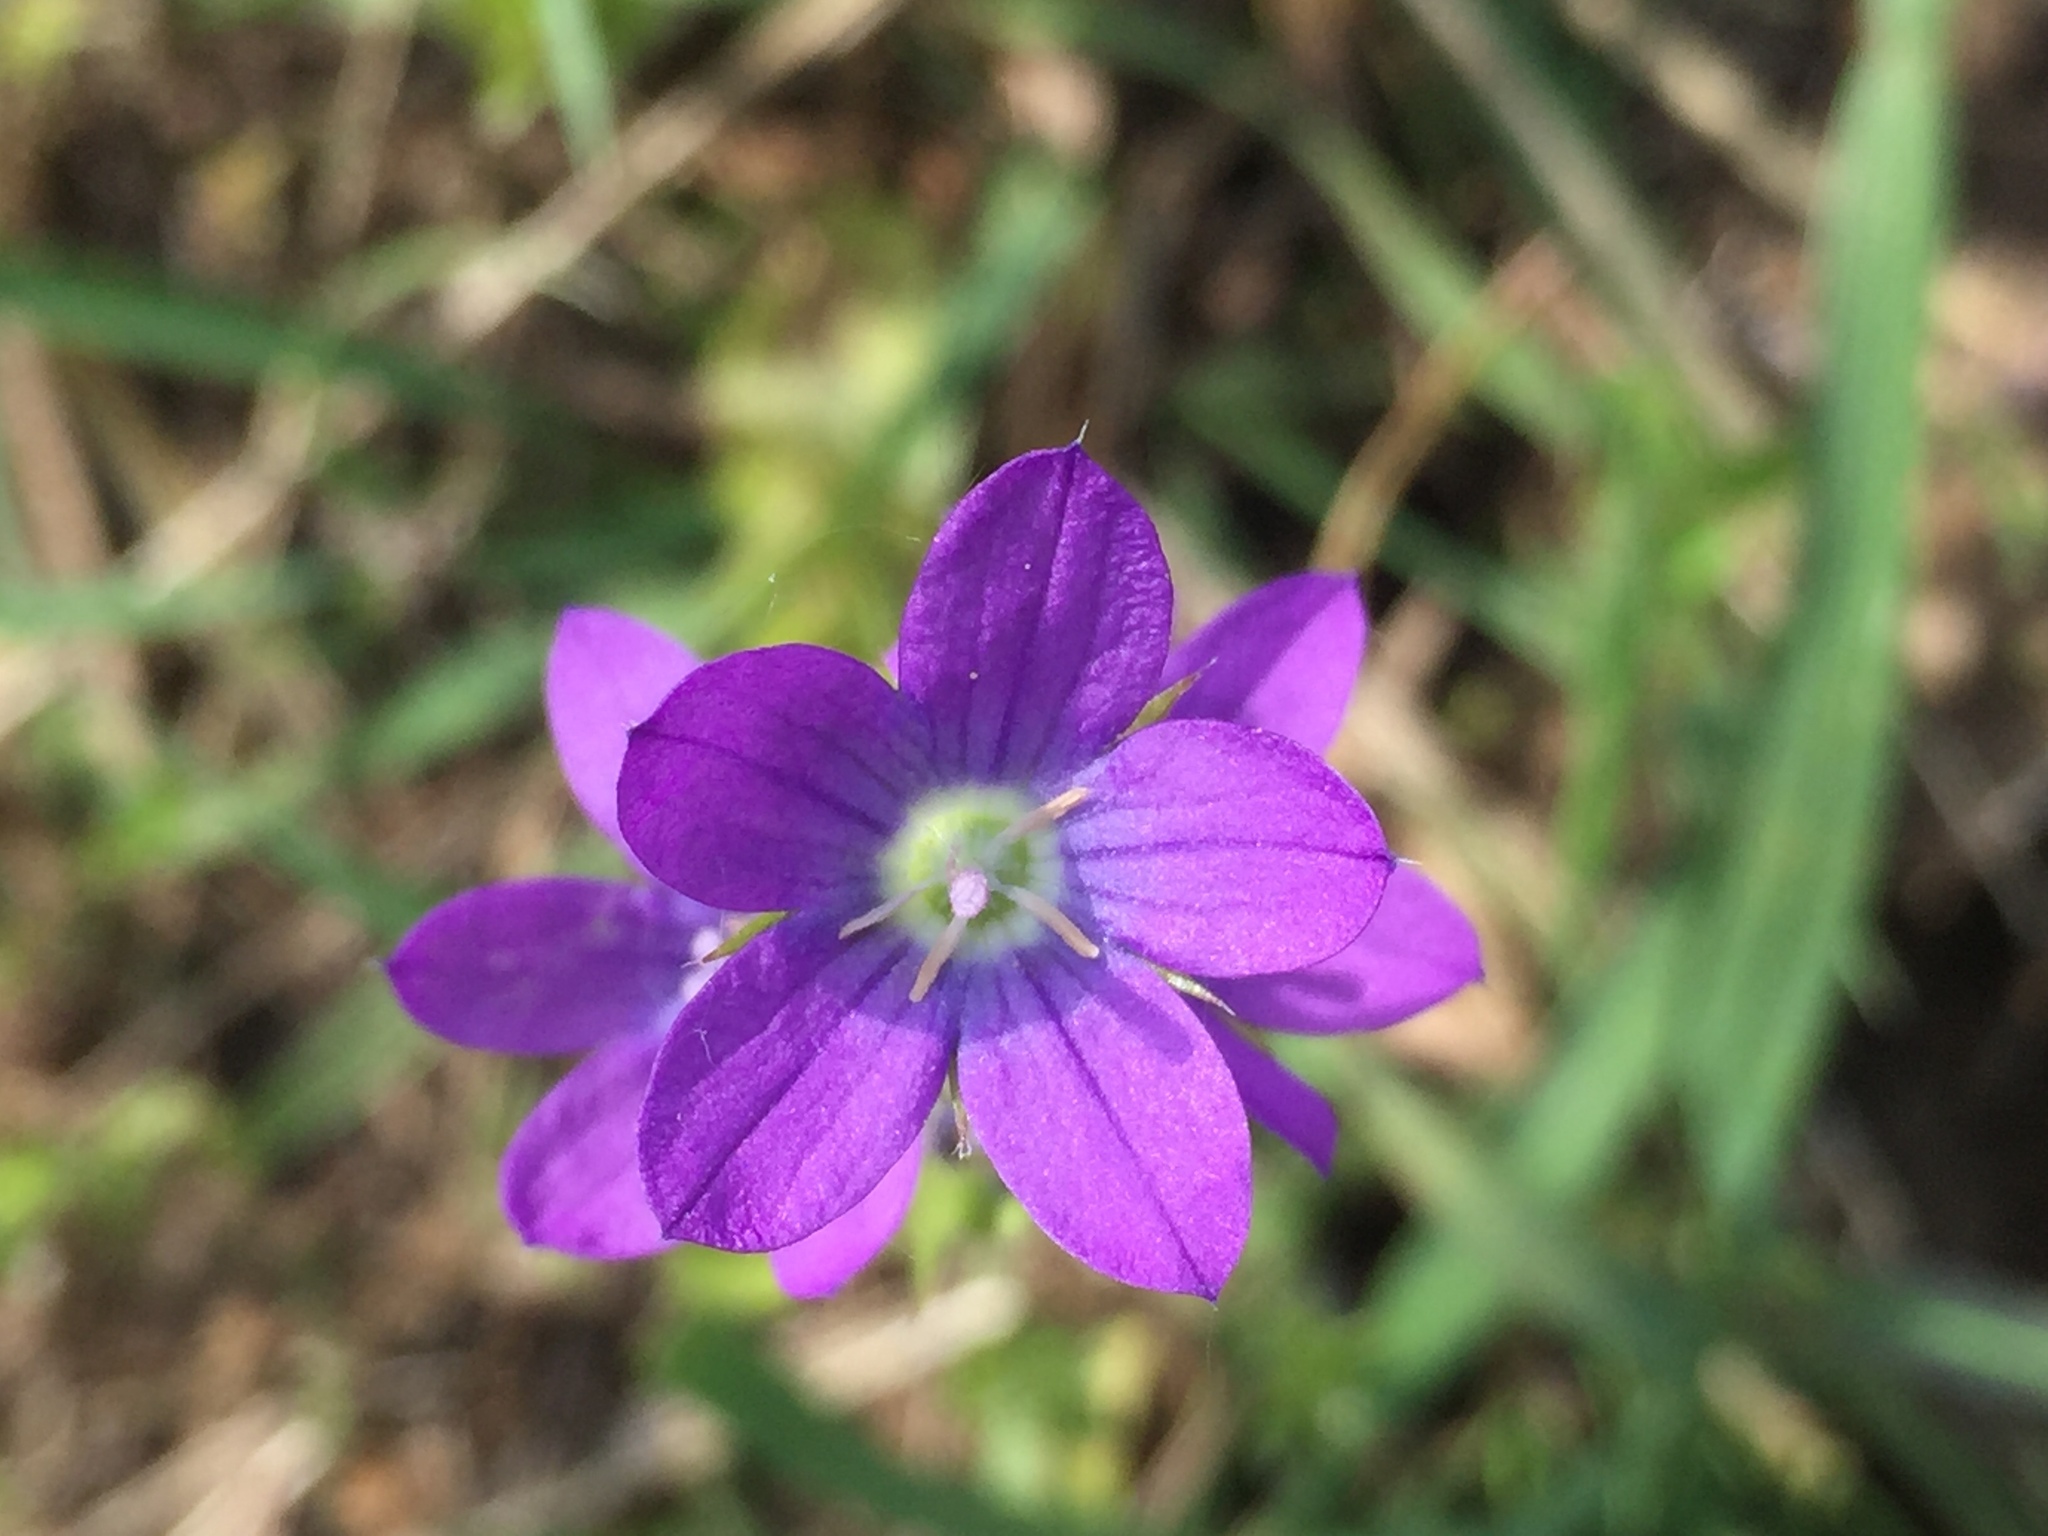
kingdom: Plantae
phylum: Tracheophyta
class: Magnoliopsida
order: Asterales
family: Campanulaceae
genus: Triodanis
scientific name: Triodanis perfoliata
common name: Clasping venus' looking-glass
